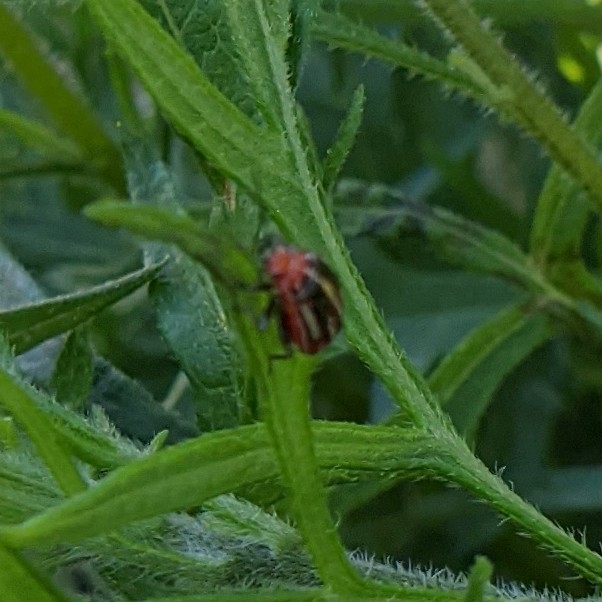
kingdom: Animalia
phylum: Arthropoda
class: Insecta
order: Hemiptera
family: Miridae
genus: Poecilocapsus
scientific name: Poecilocapsus lineatus
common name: Four-lined plant bug
